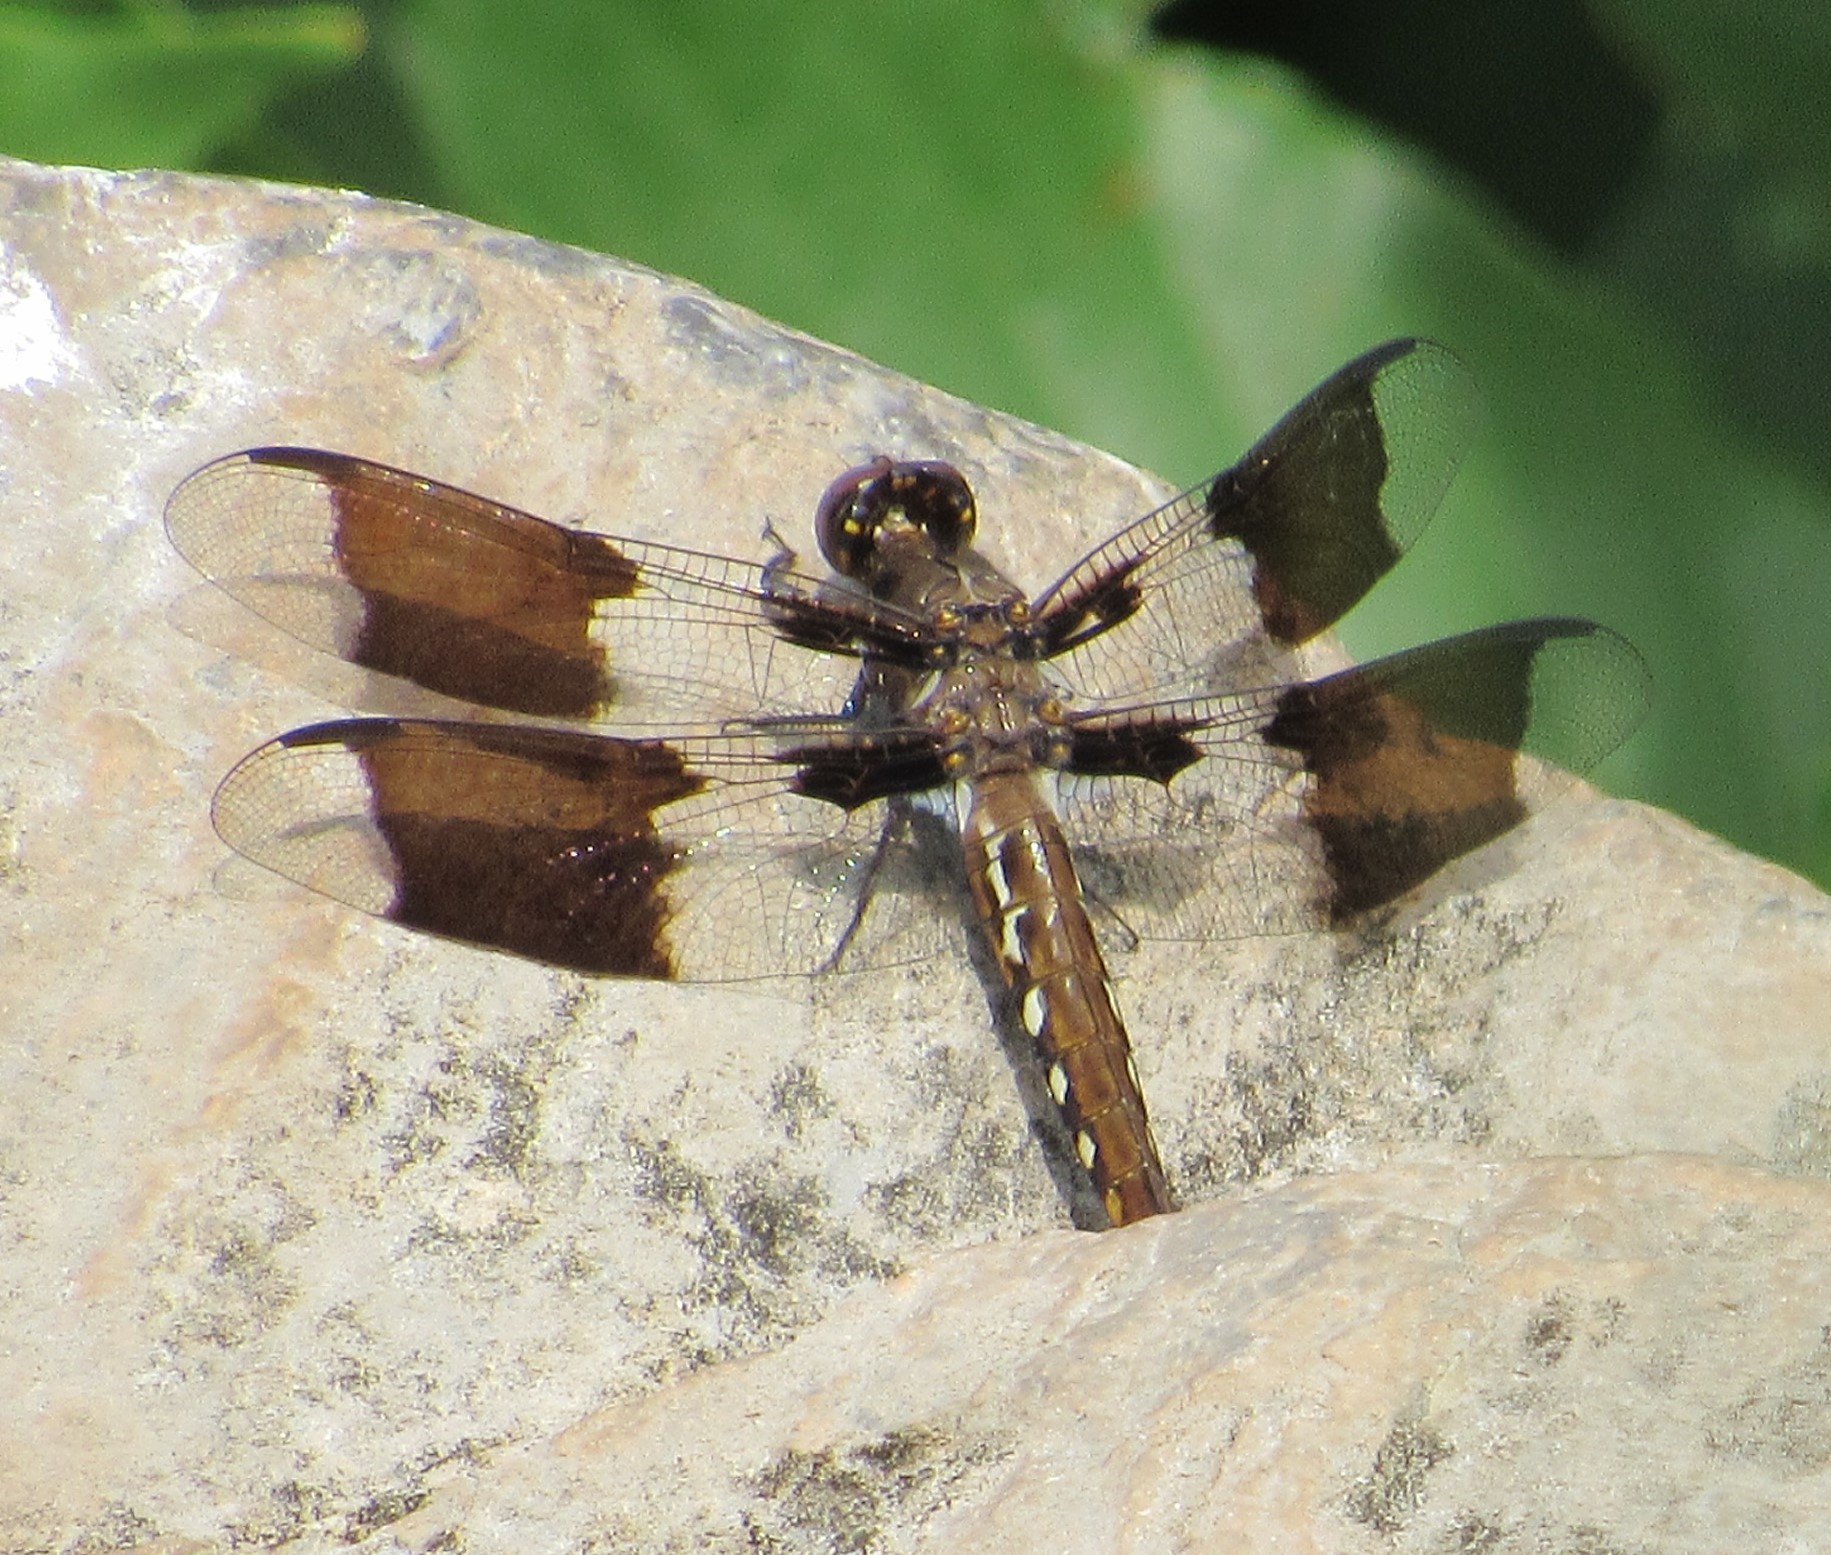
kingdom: Animalia
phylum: Arthropoda
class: Insecta
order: Odonata
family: Libellulidae
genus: Plathemis
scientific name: Plathemis lydia
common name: Common whitetail
